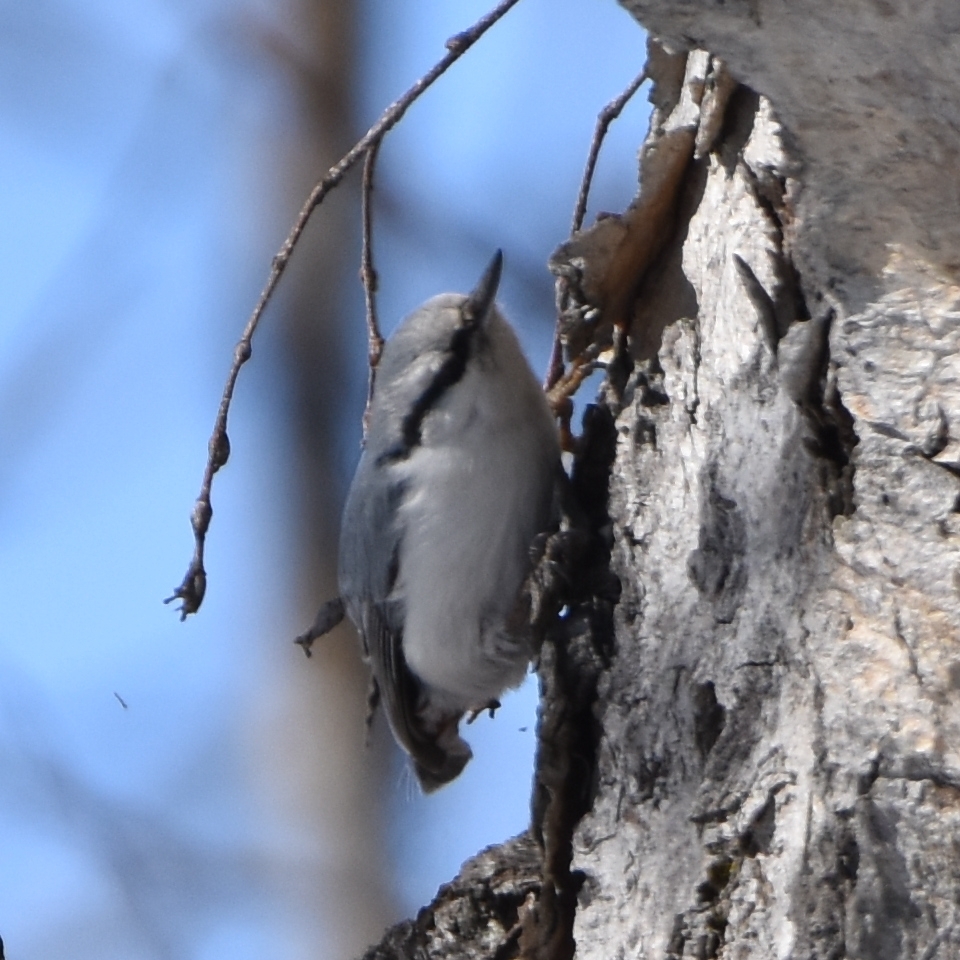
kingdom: Animalia
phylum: Chordata
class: Aves
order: Passeriformes
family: Sittidae
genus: Sitta
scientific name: Sitta europaea
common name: Eurasian nuthatch
